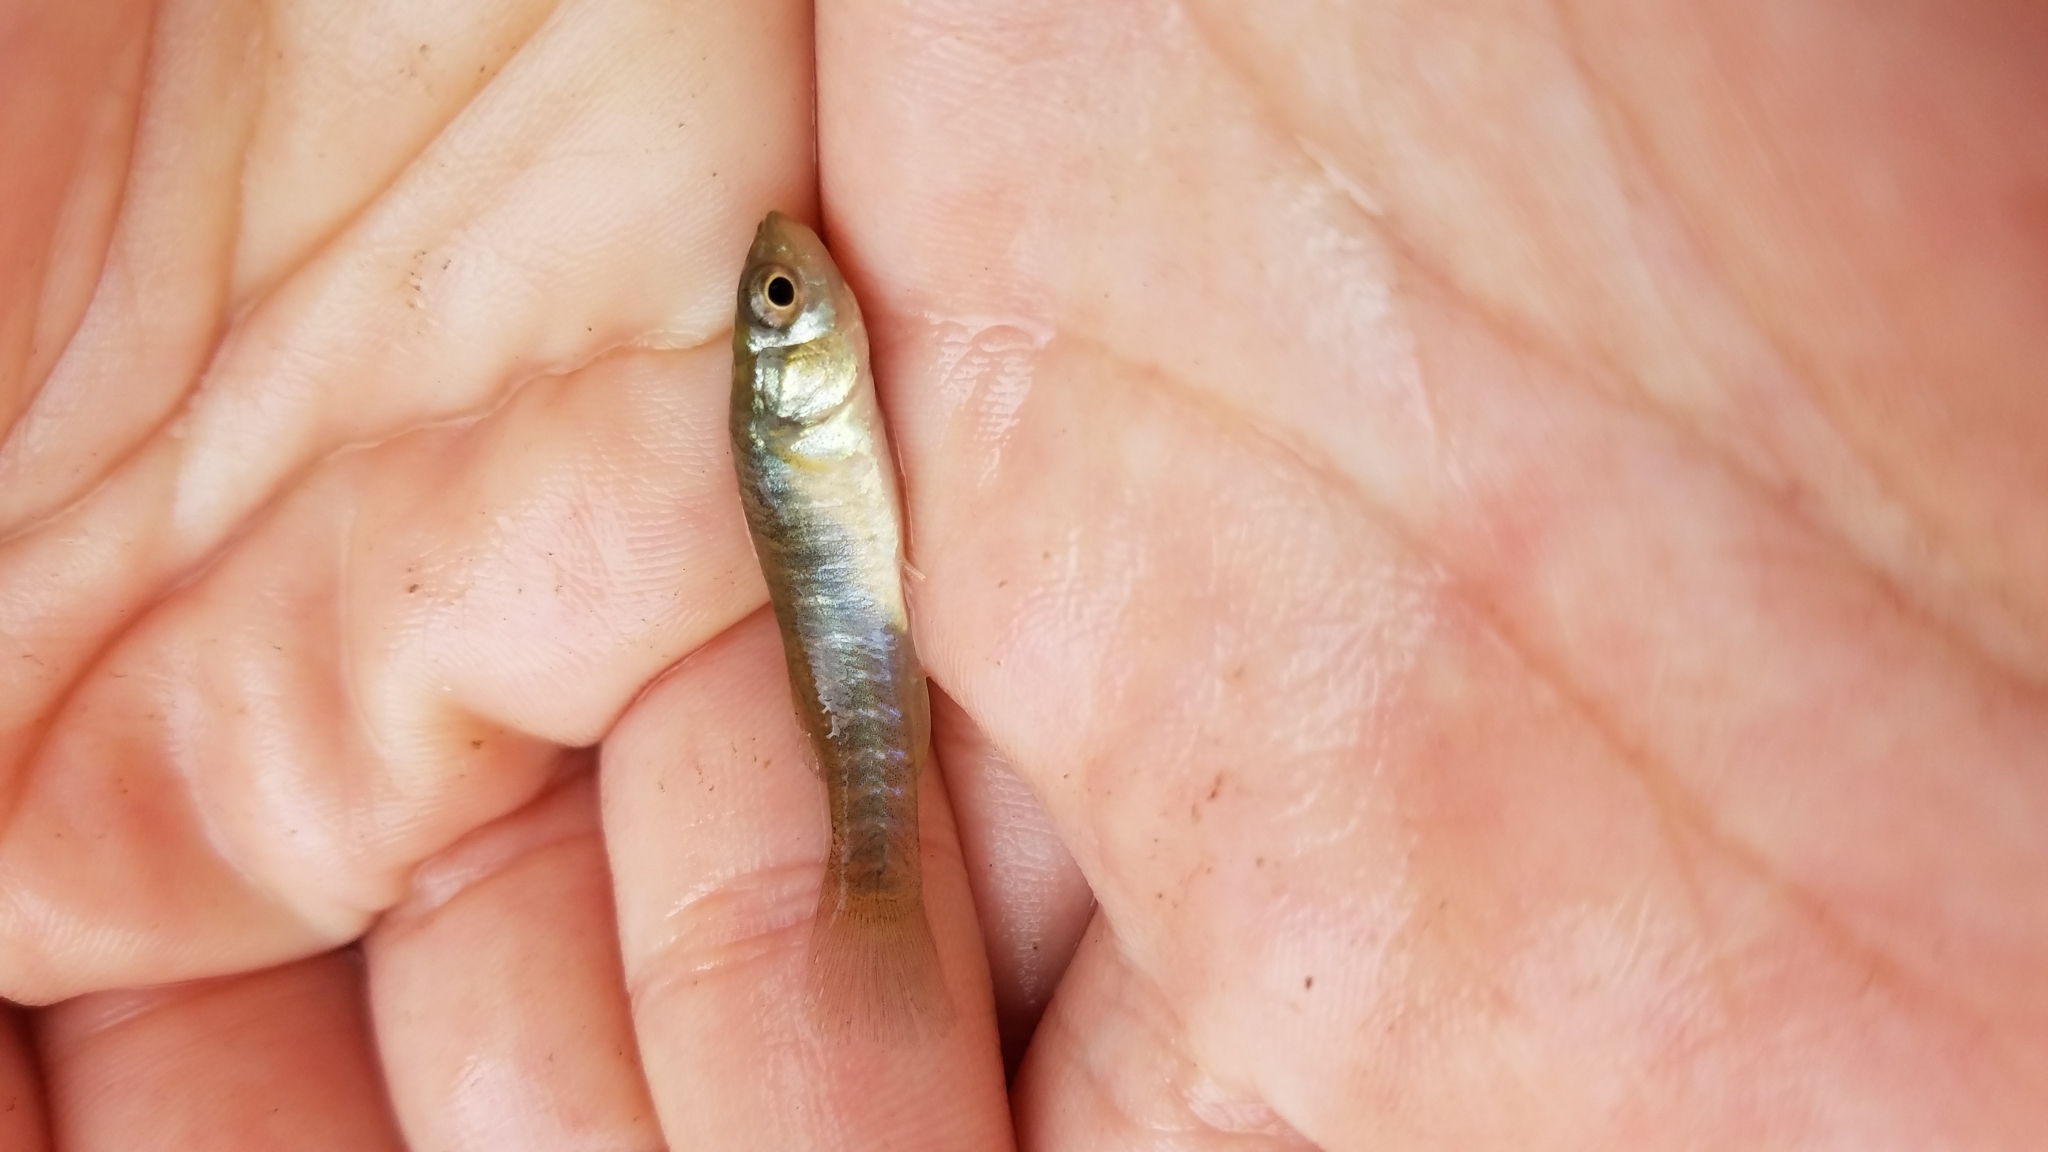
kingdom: Animalia
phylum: Chordata
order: Cyprinodontiformes
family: Fundulidae
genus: Fundulus
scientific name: Fundulus heteroclitus
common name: Mummichog
